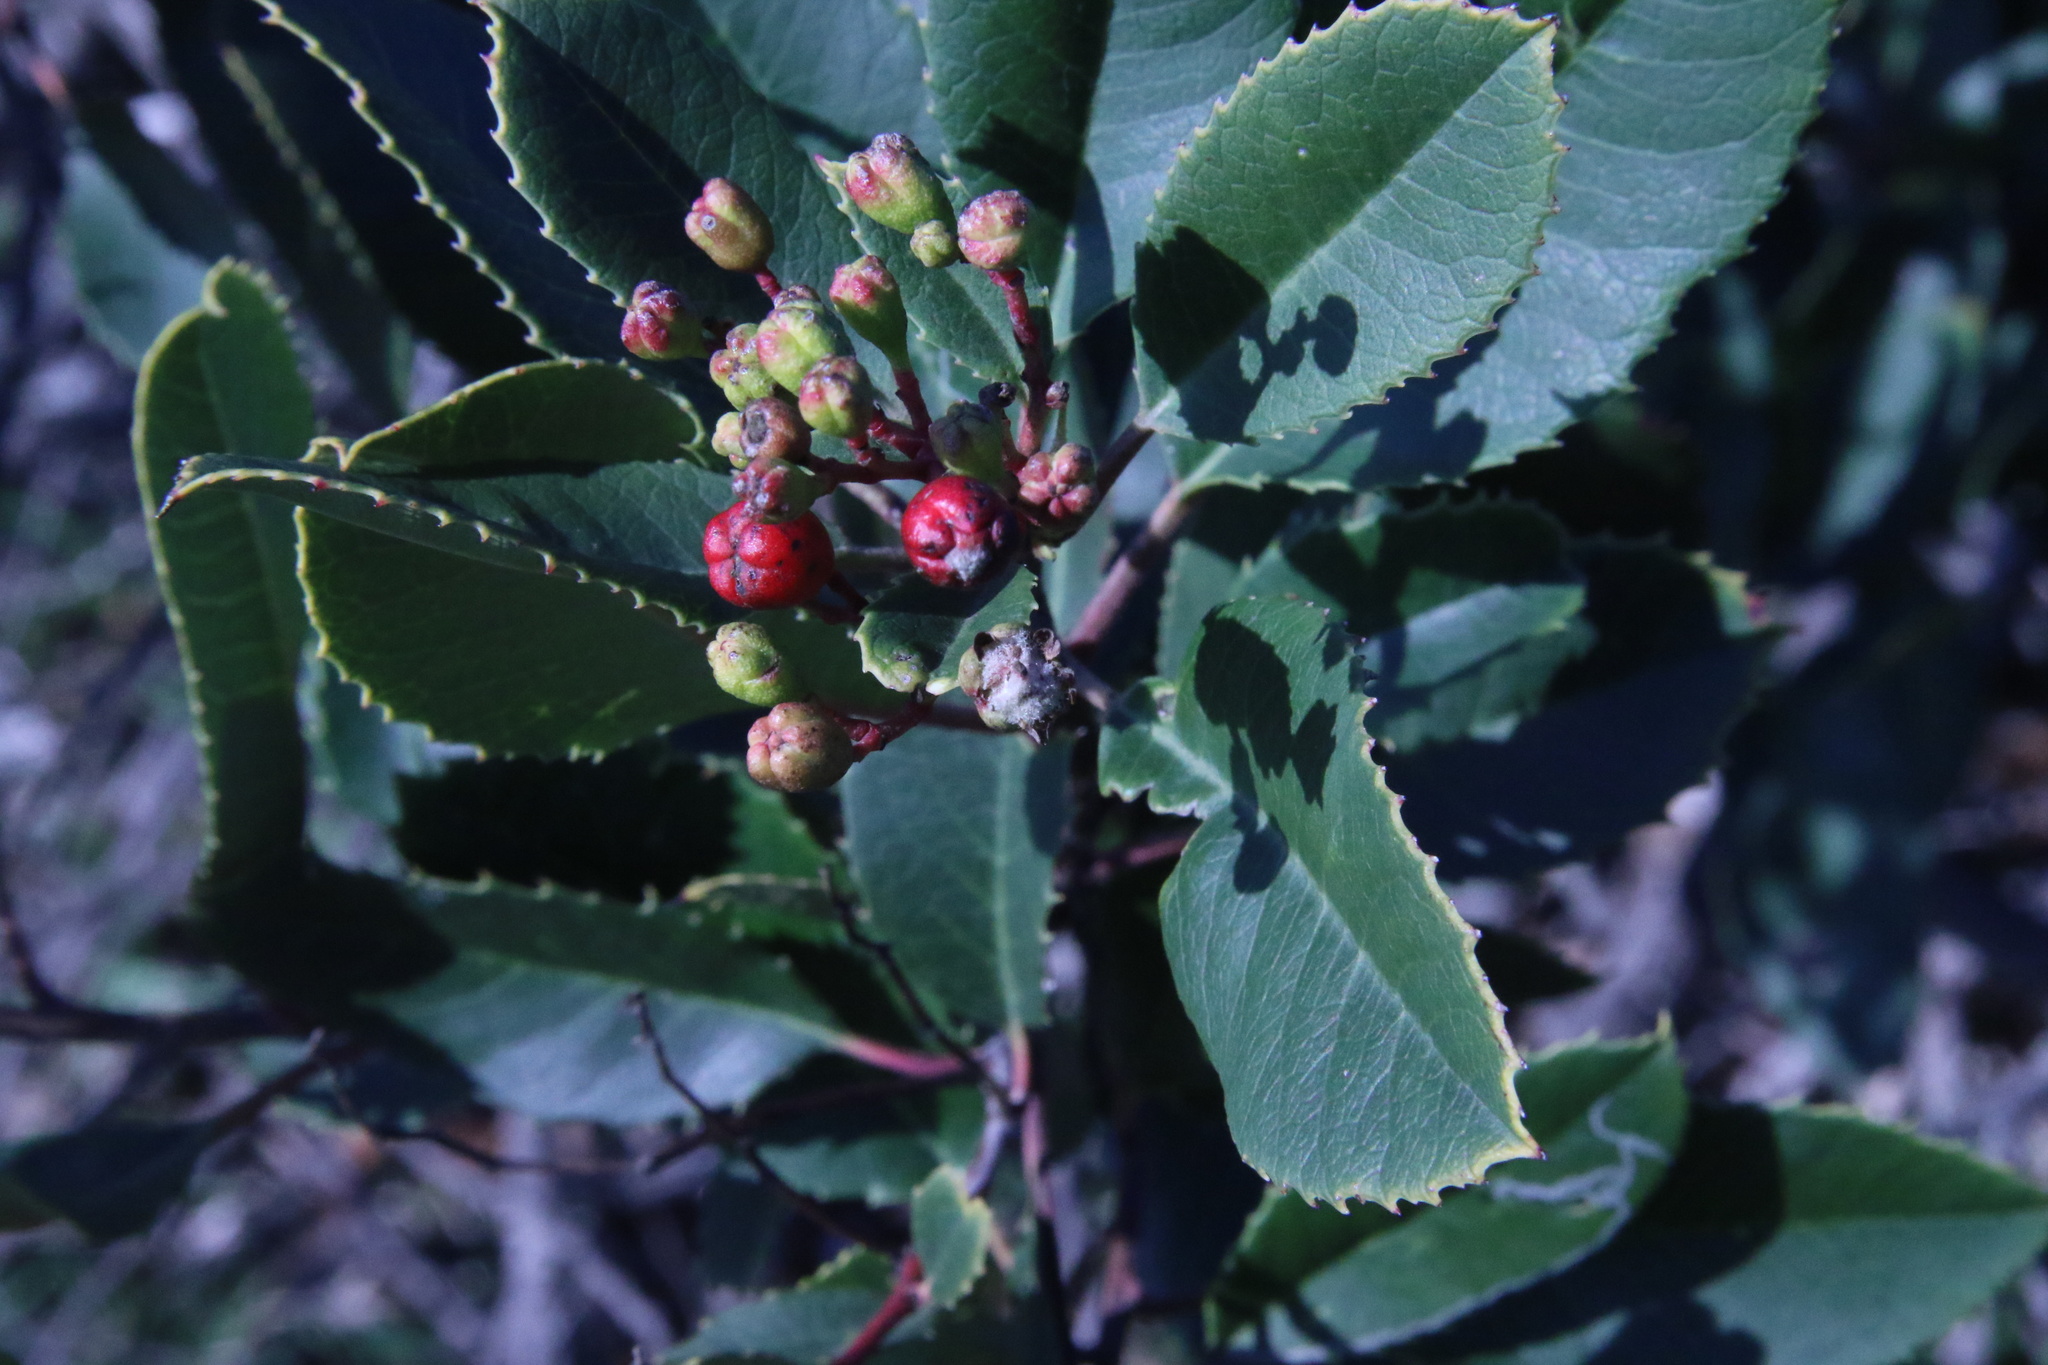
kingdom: Animalia
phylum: Arthropoda
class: Insecta
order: Diptera
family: Cecidomyiidae
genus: Asphondylia
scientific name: Asphondylia photiniae
